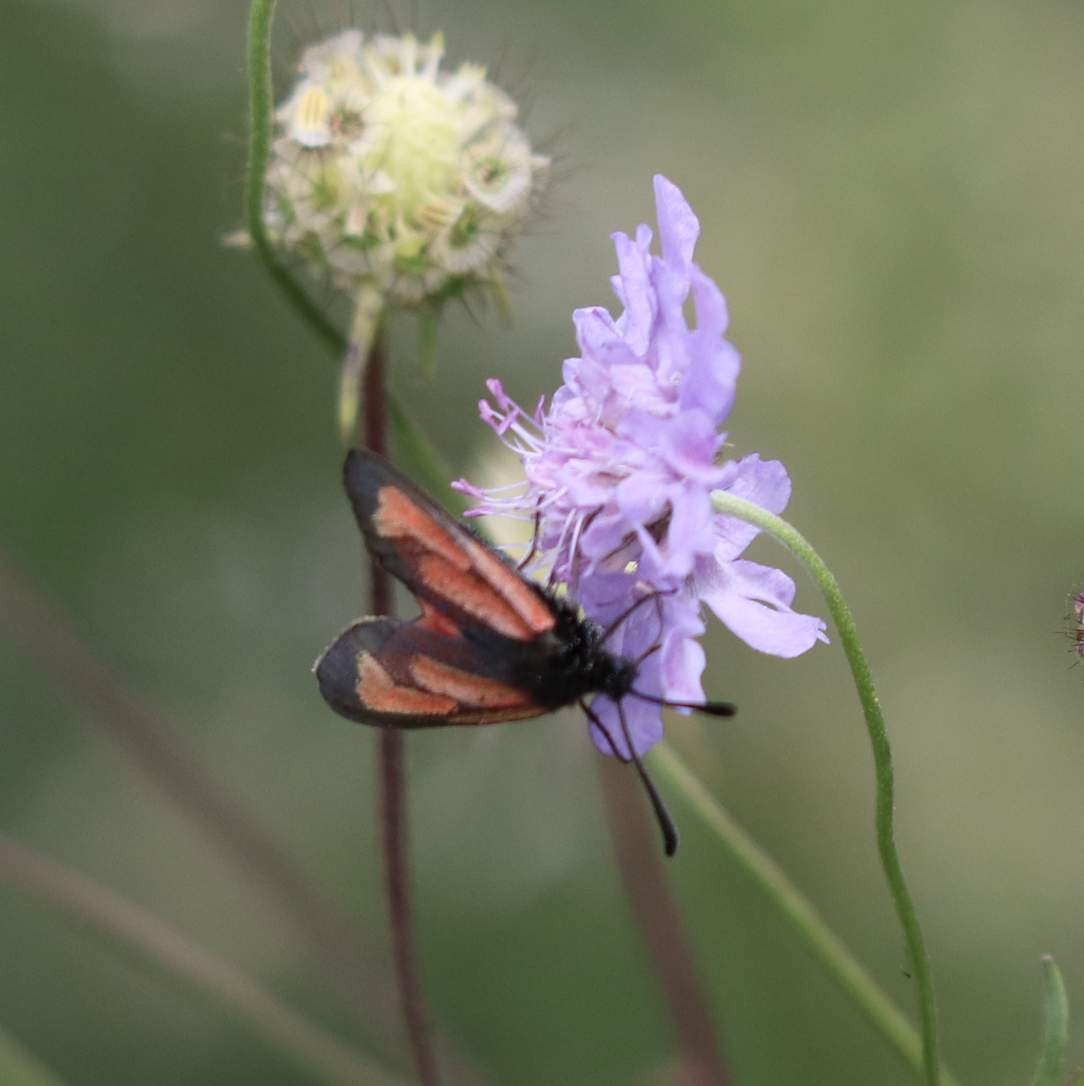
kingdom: Animalia
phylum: Arthropoda
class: Insecta
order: Lepidoptera
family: Zygaenidae
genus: Zygaena
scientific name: Zygaena purpuralis
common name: Transparent burnet
